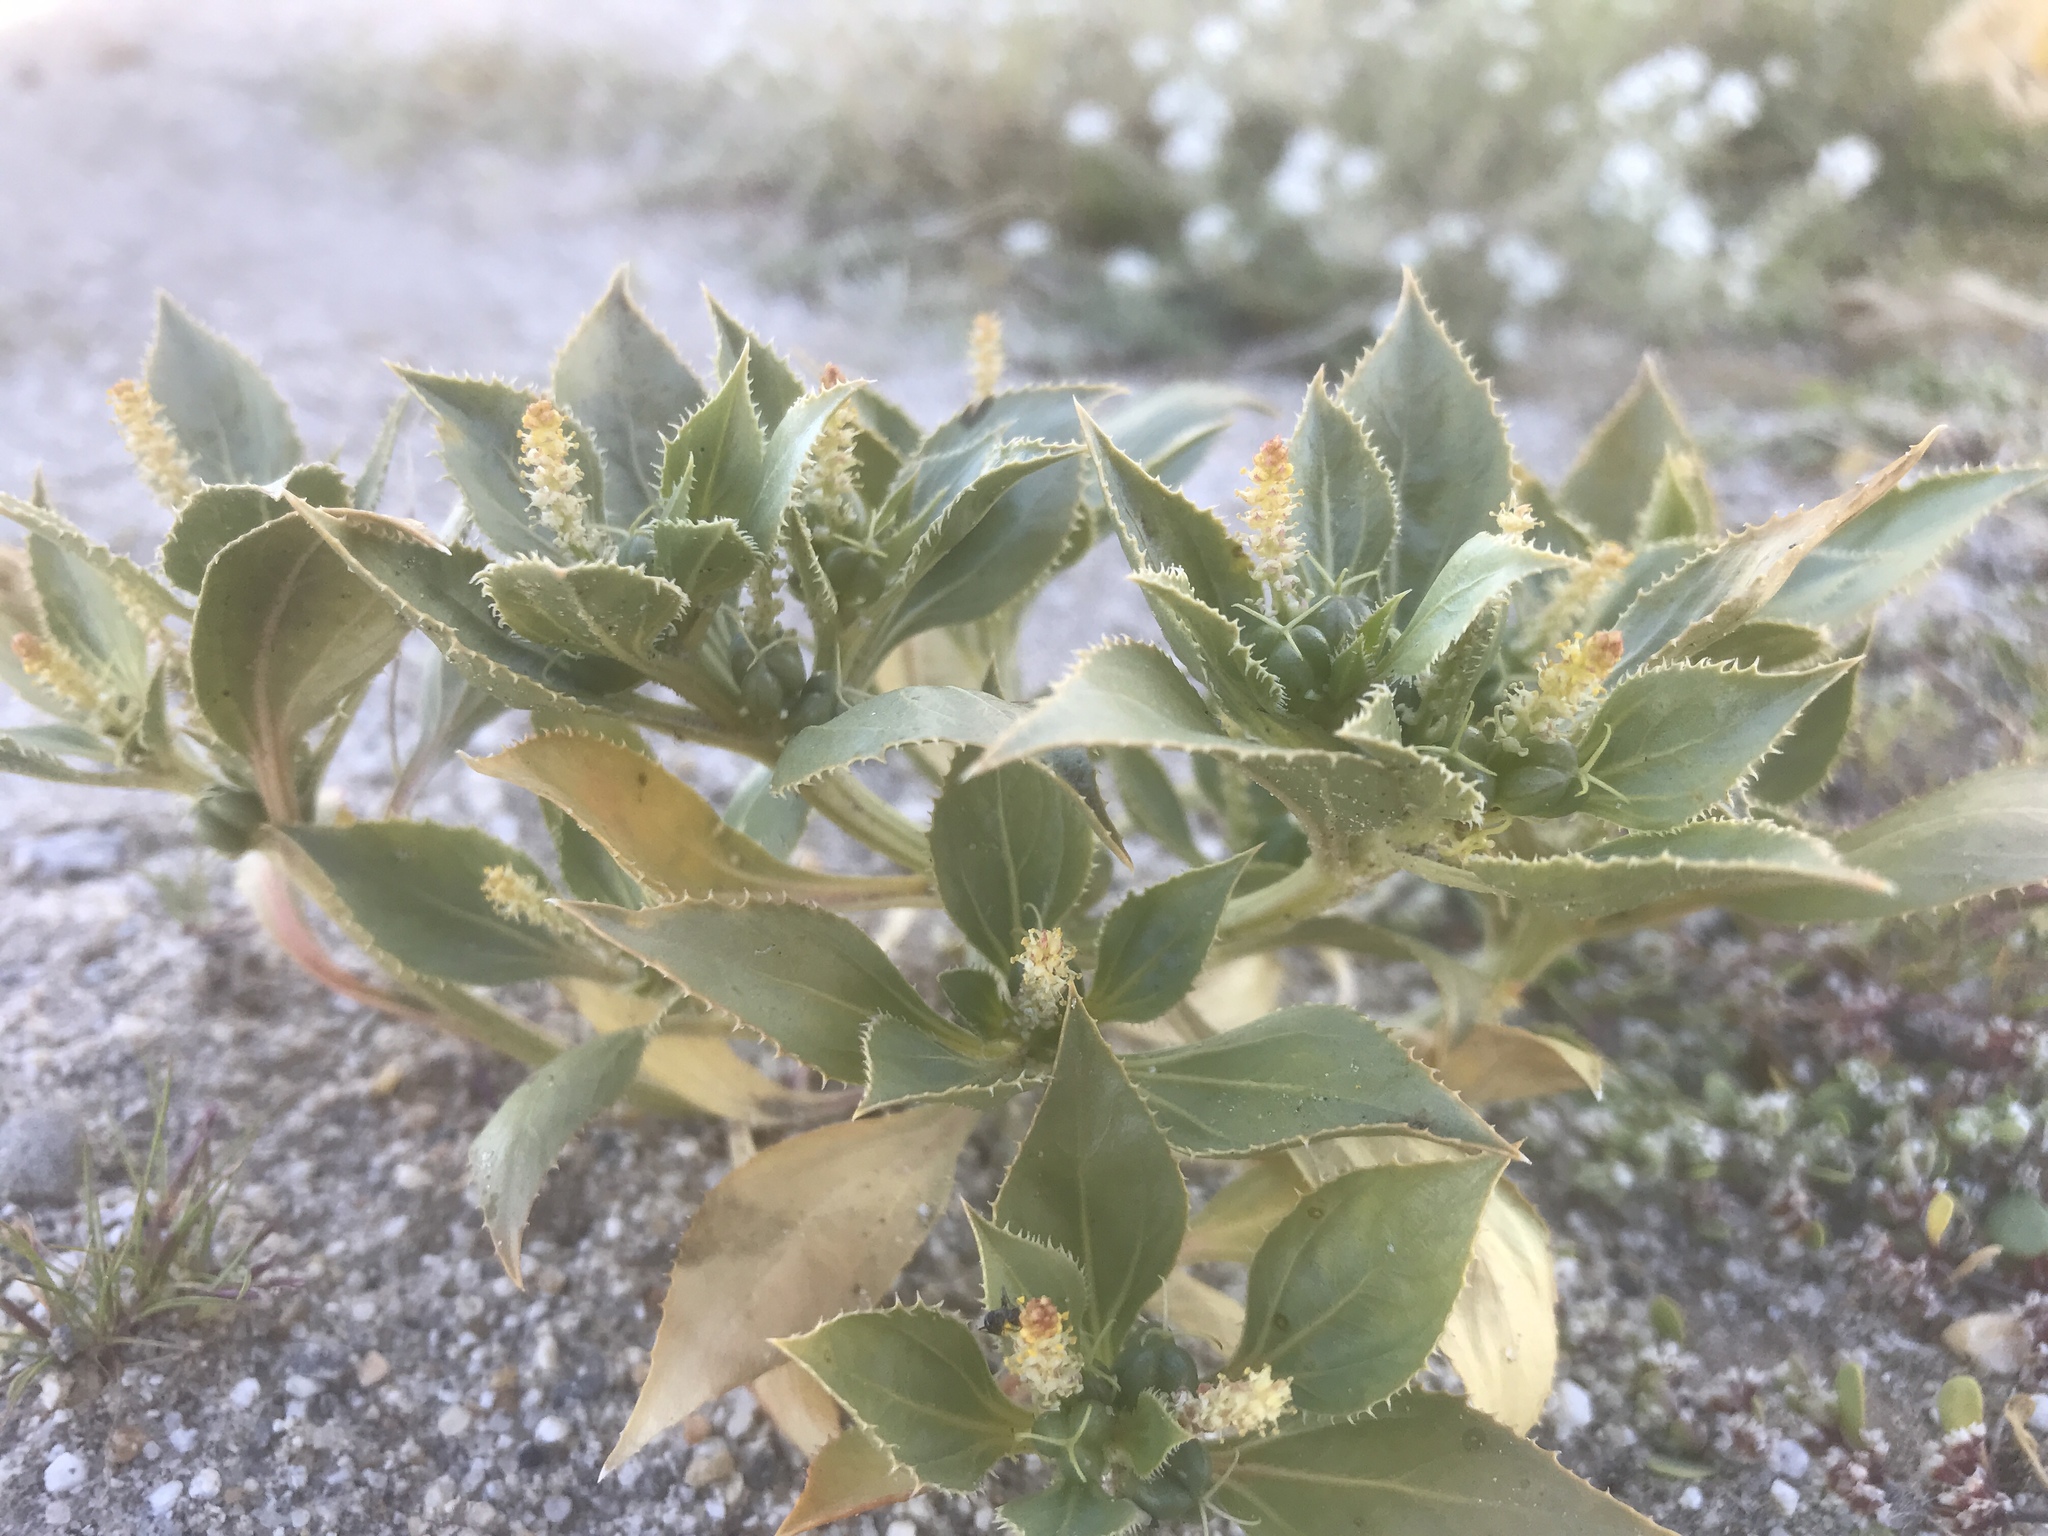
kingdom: Plantae
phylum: Tracheophyta
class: Magnoliopsida
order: Malpighiales
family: Euphorbiaceae
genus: Stillingia
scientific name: Stillingia spinulosa
